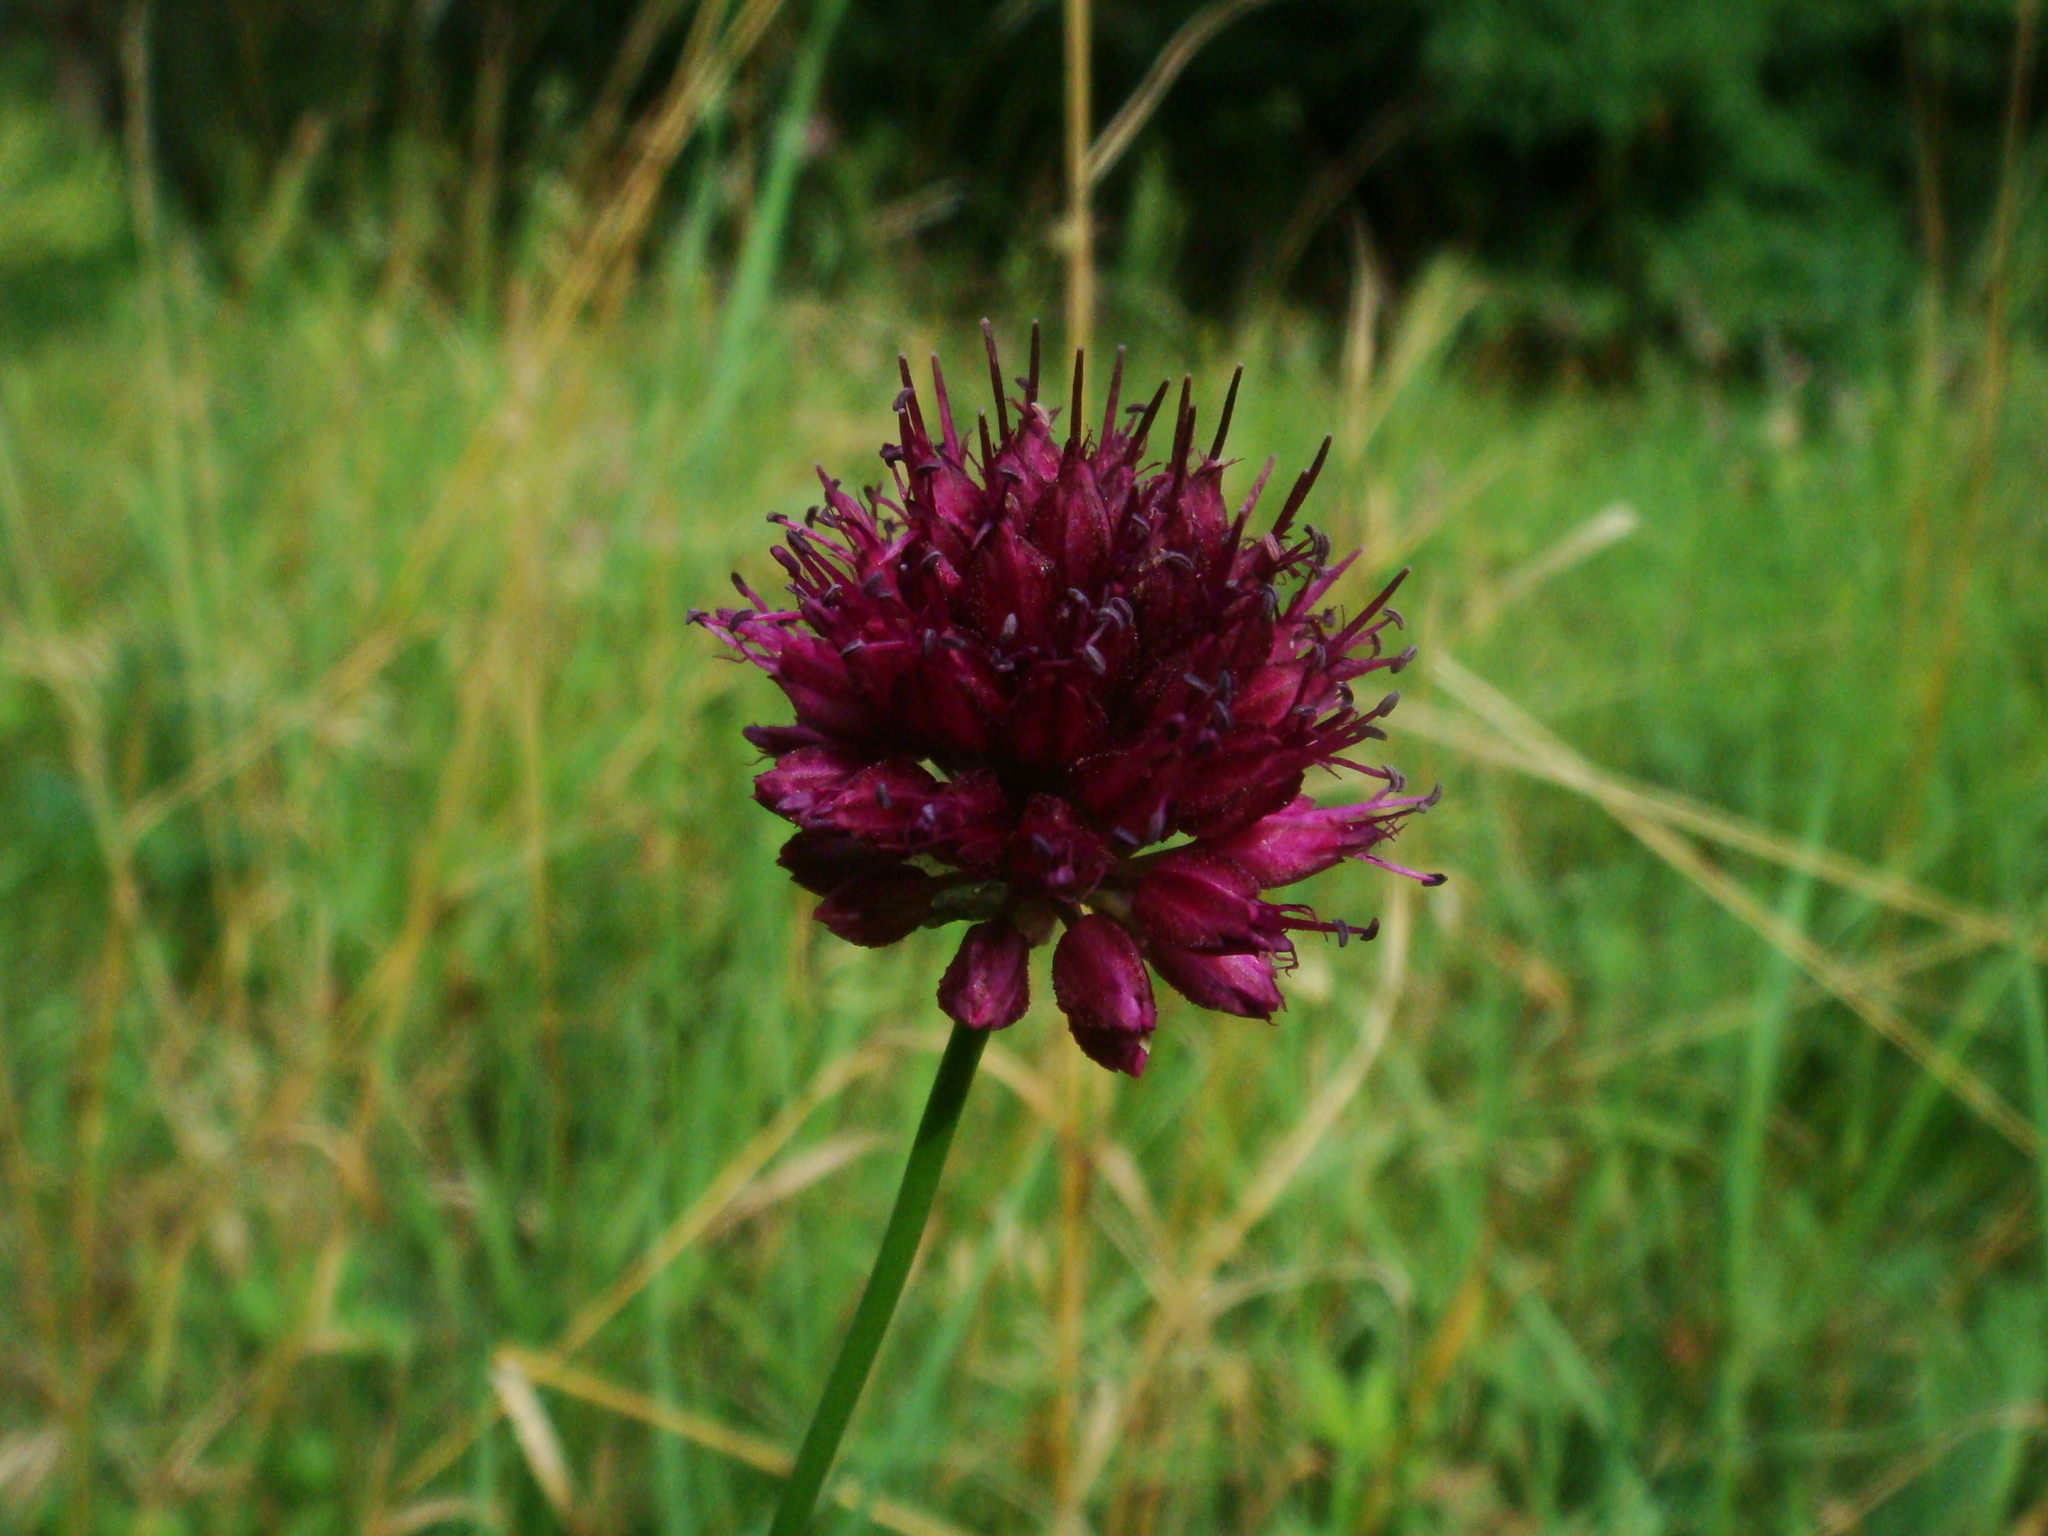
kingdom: Plantae
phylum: Tracheophyta
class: Liliopsida
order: Asparagales
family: Amaryllidaceae
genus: Allium
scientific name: Allium sphaerocephalon
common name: Round-headed leek
